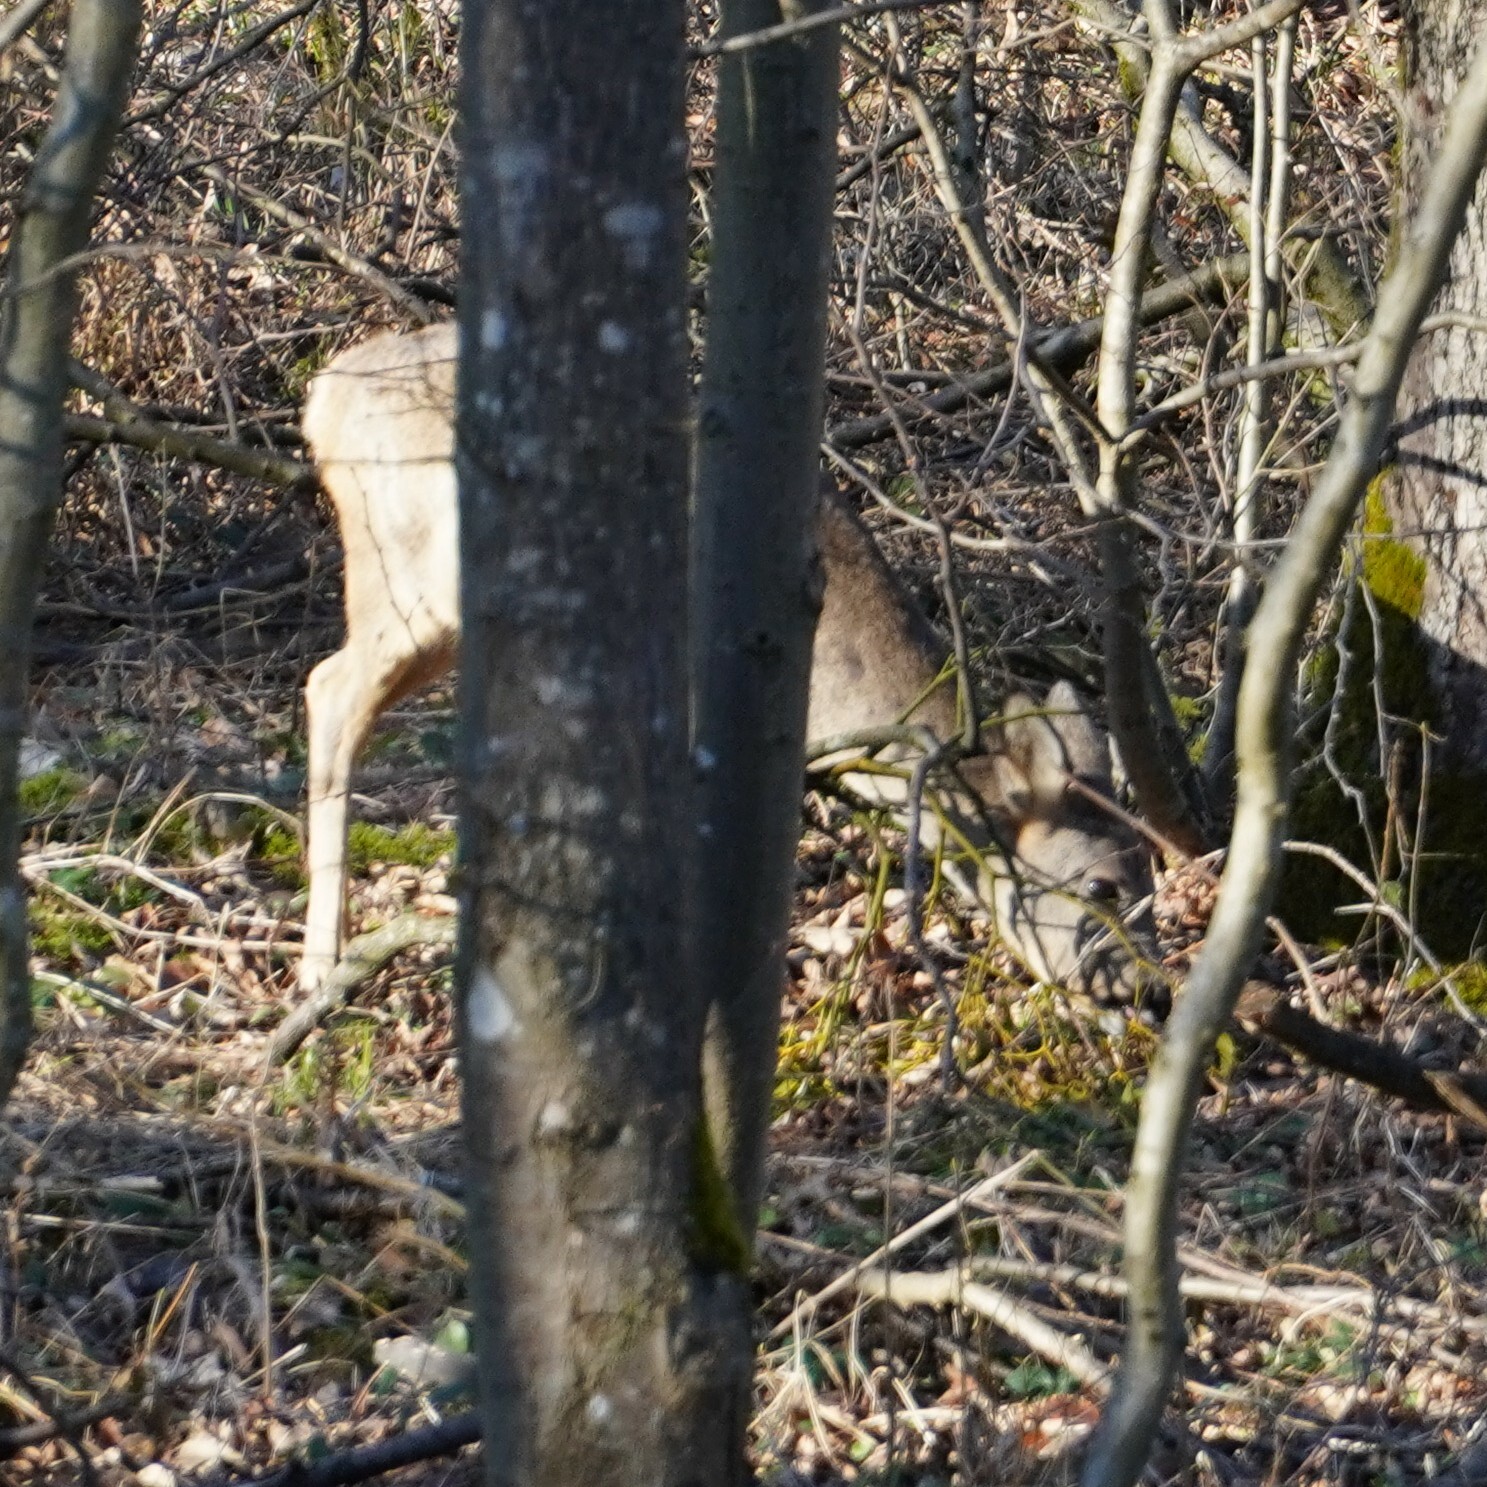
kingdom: Animalia
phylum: Chordata
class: Mammalia
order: Artiodactyla
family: Cervidae
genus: Capreolus
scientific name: Capreolus capreolus
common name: Western roe deer
